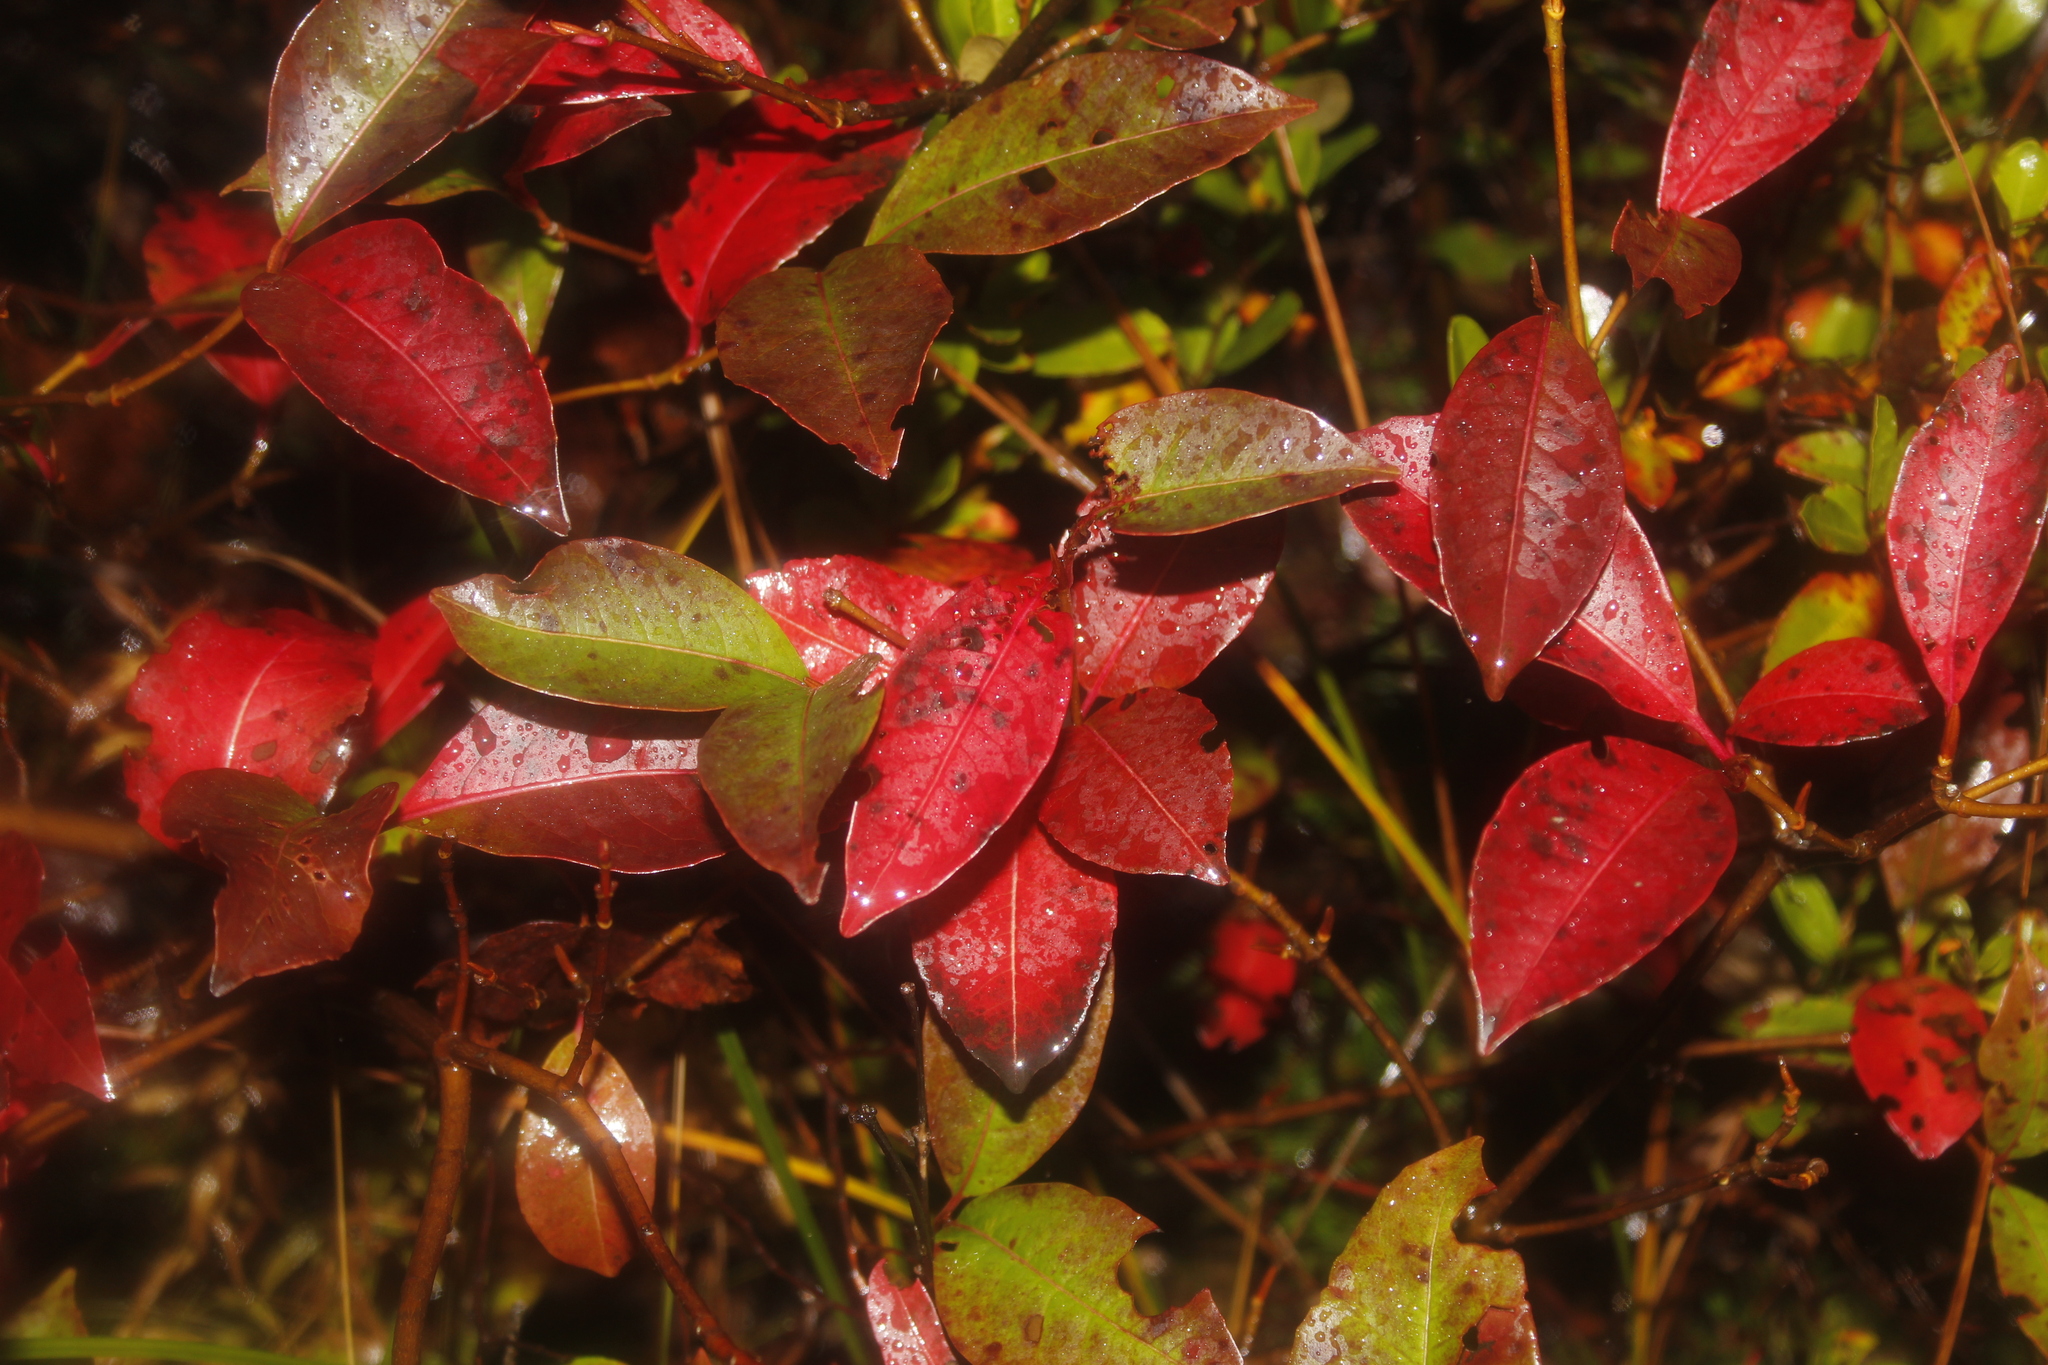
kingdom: Plantae
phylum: Tracheophyta
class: Magnoliopsida
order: Dipsacales
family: Viburnaceae
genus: Viburnum
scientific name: Viburnum cassinoides
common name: Swamp haw
